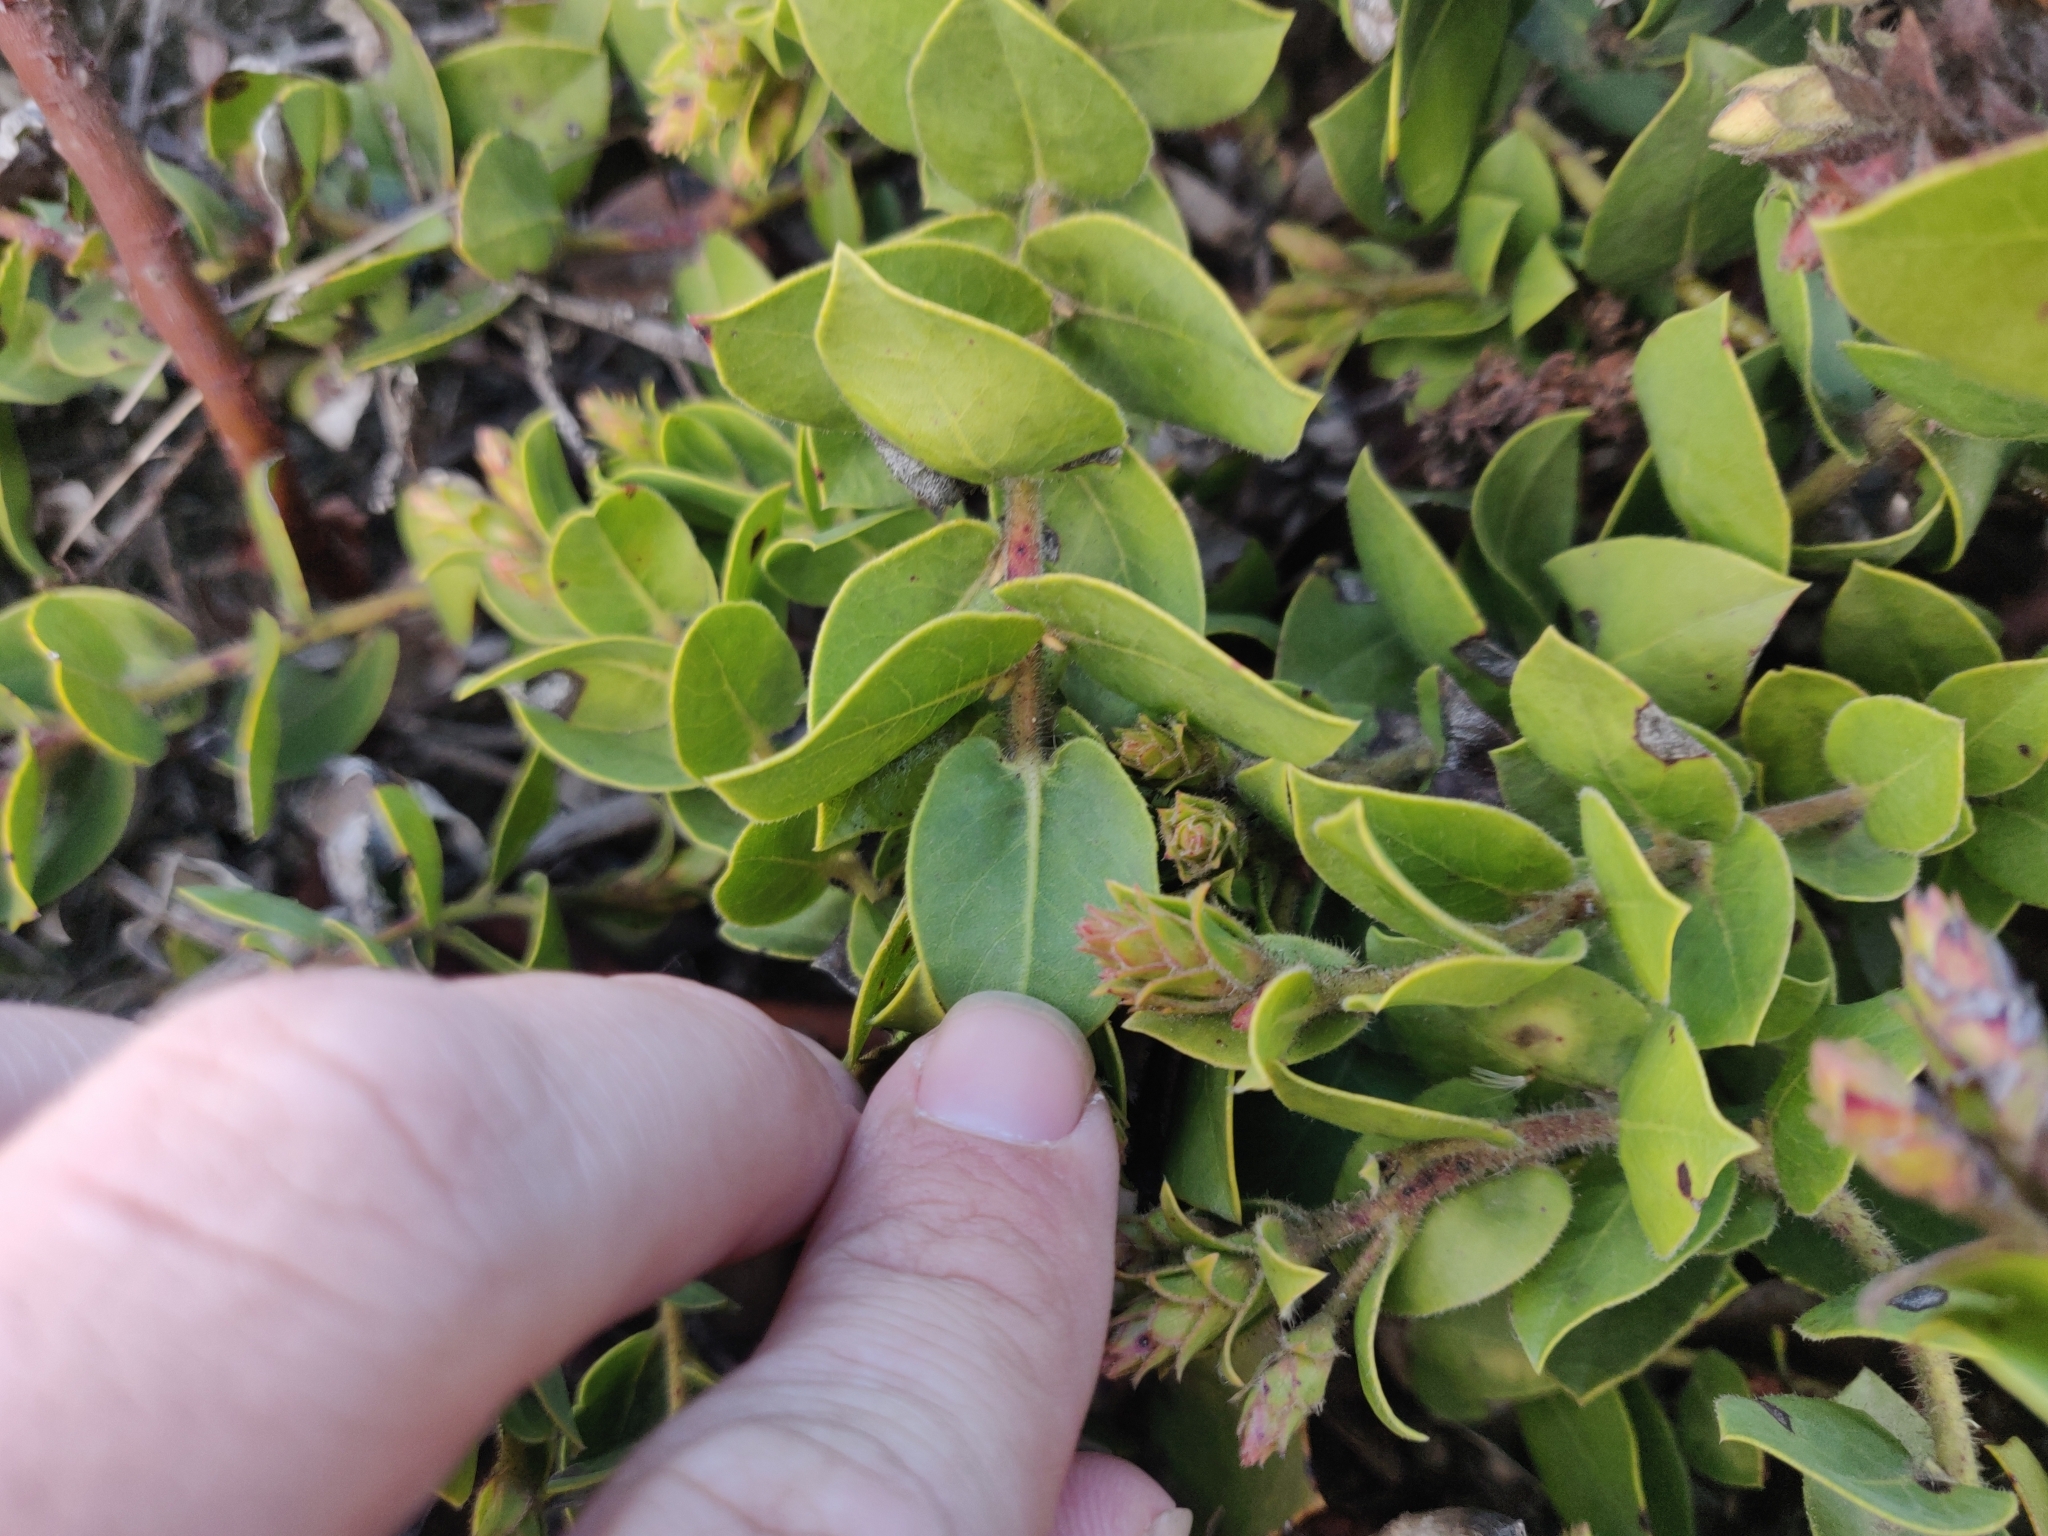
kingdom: Plantae
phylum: Tracheophyta
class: Magnoliopsida
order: Ericales
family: Ericaceae
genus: Arctostaphylos
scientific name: Arctostaphylos imbricata
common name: San bruno mountain manzanita
